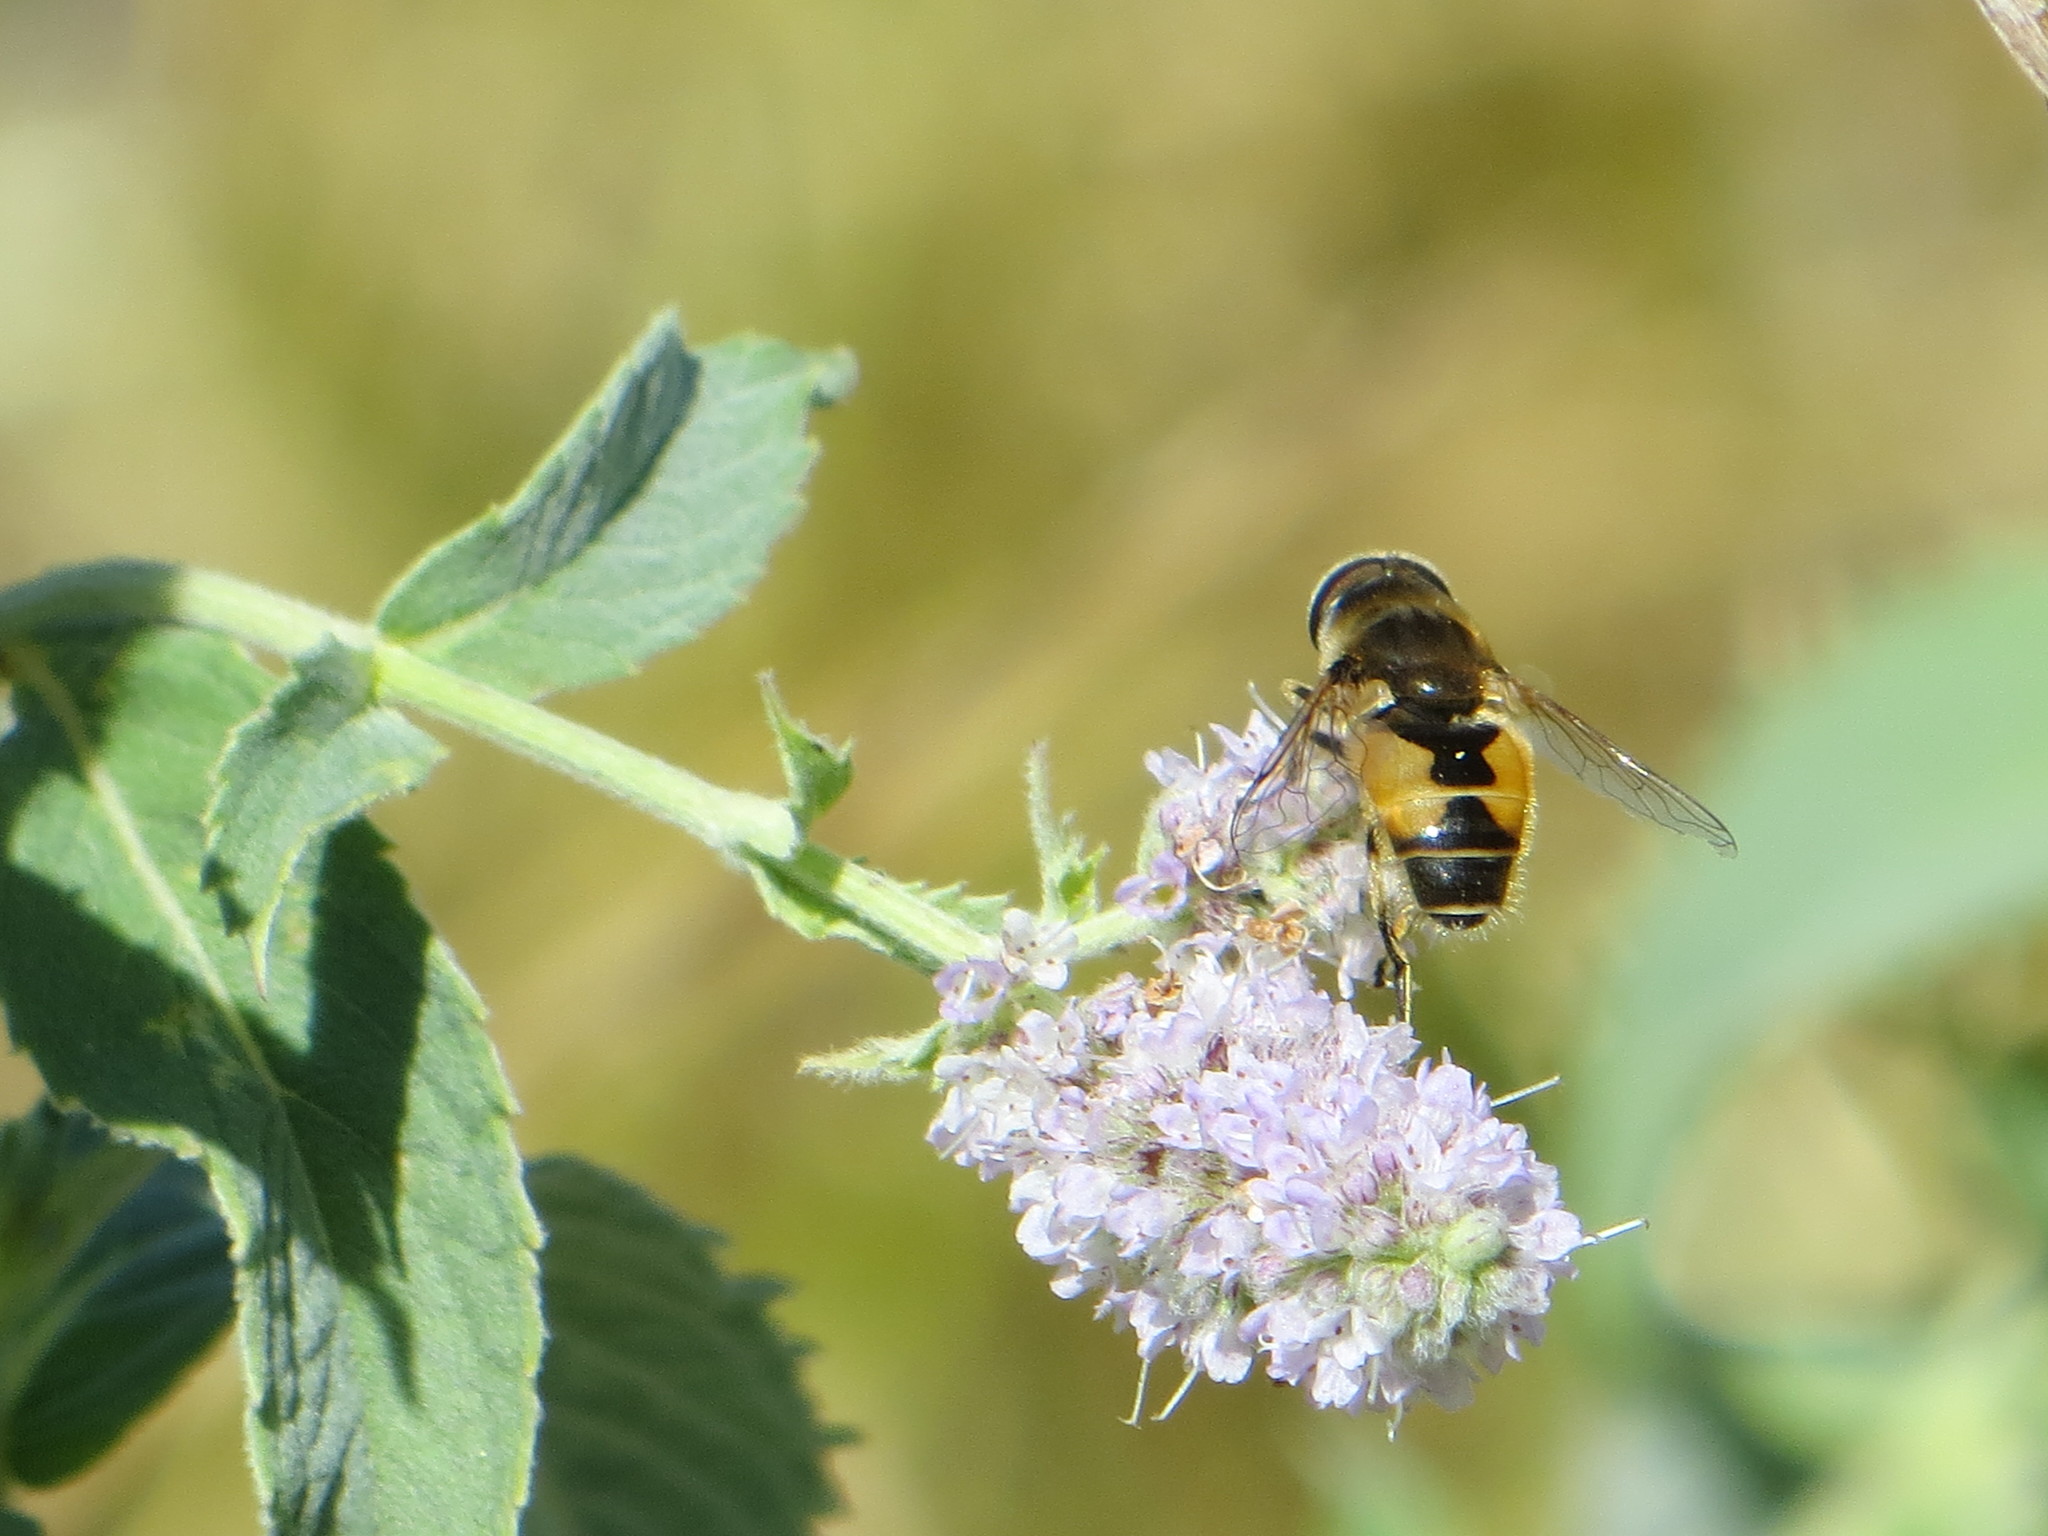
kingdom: Animalia
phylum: Arthropoda
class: Insecta
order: Diptera
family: Syrphidae
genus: Eristalis
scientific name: Eristalis arbustorum
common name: Hover fly
